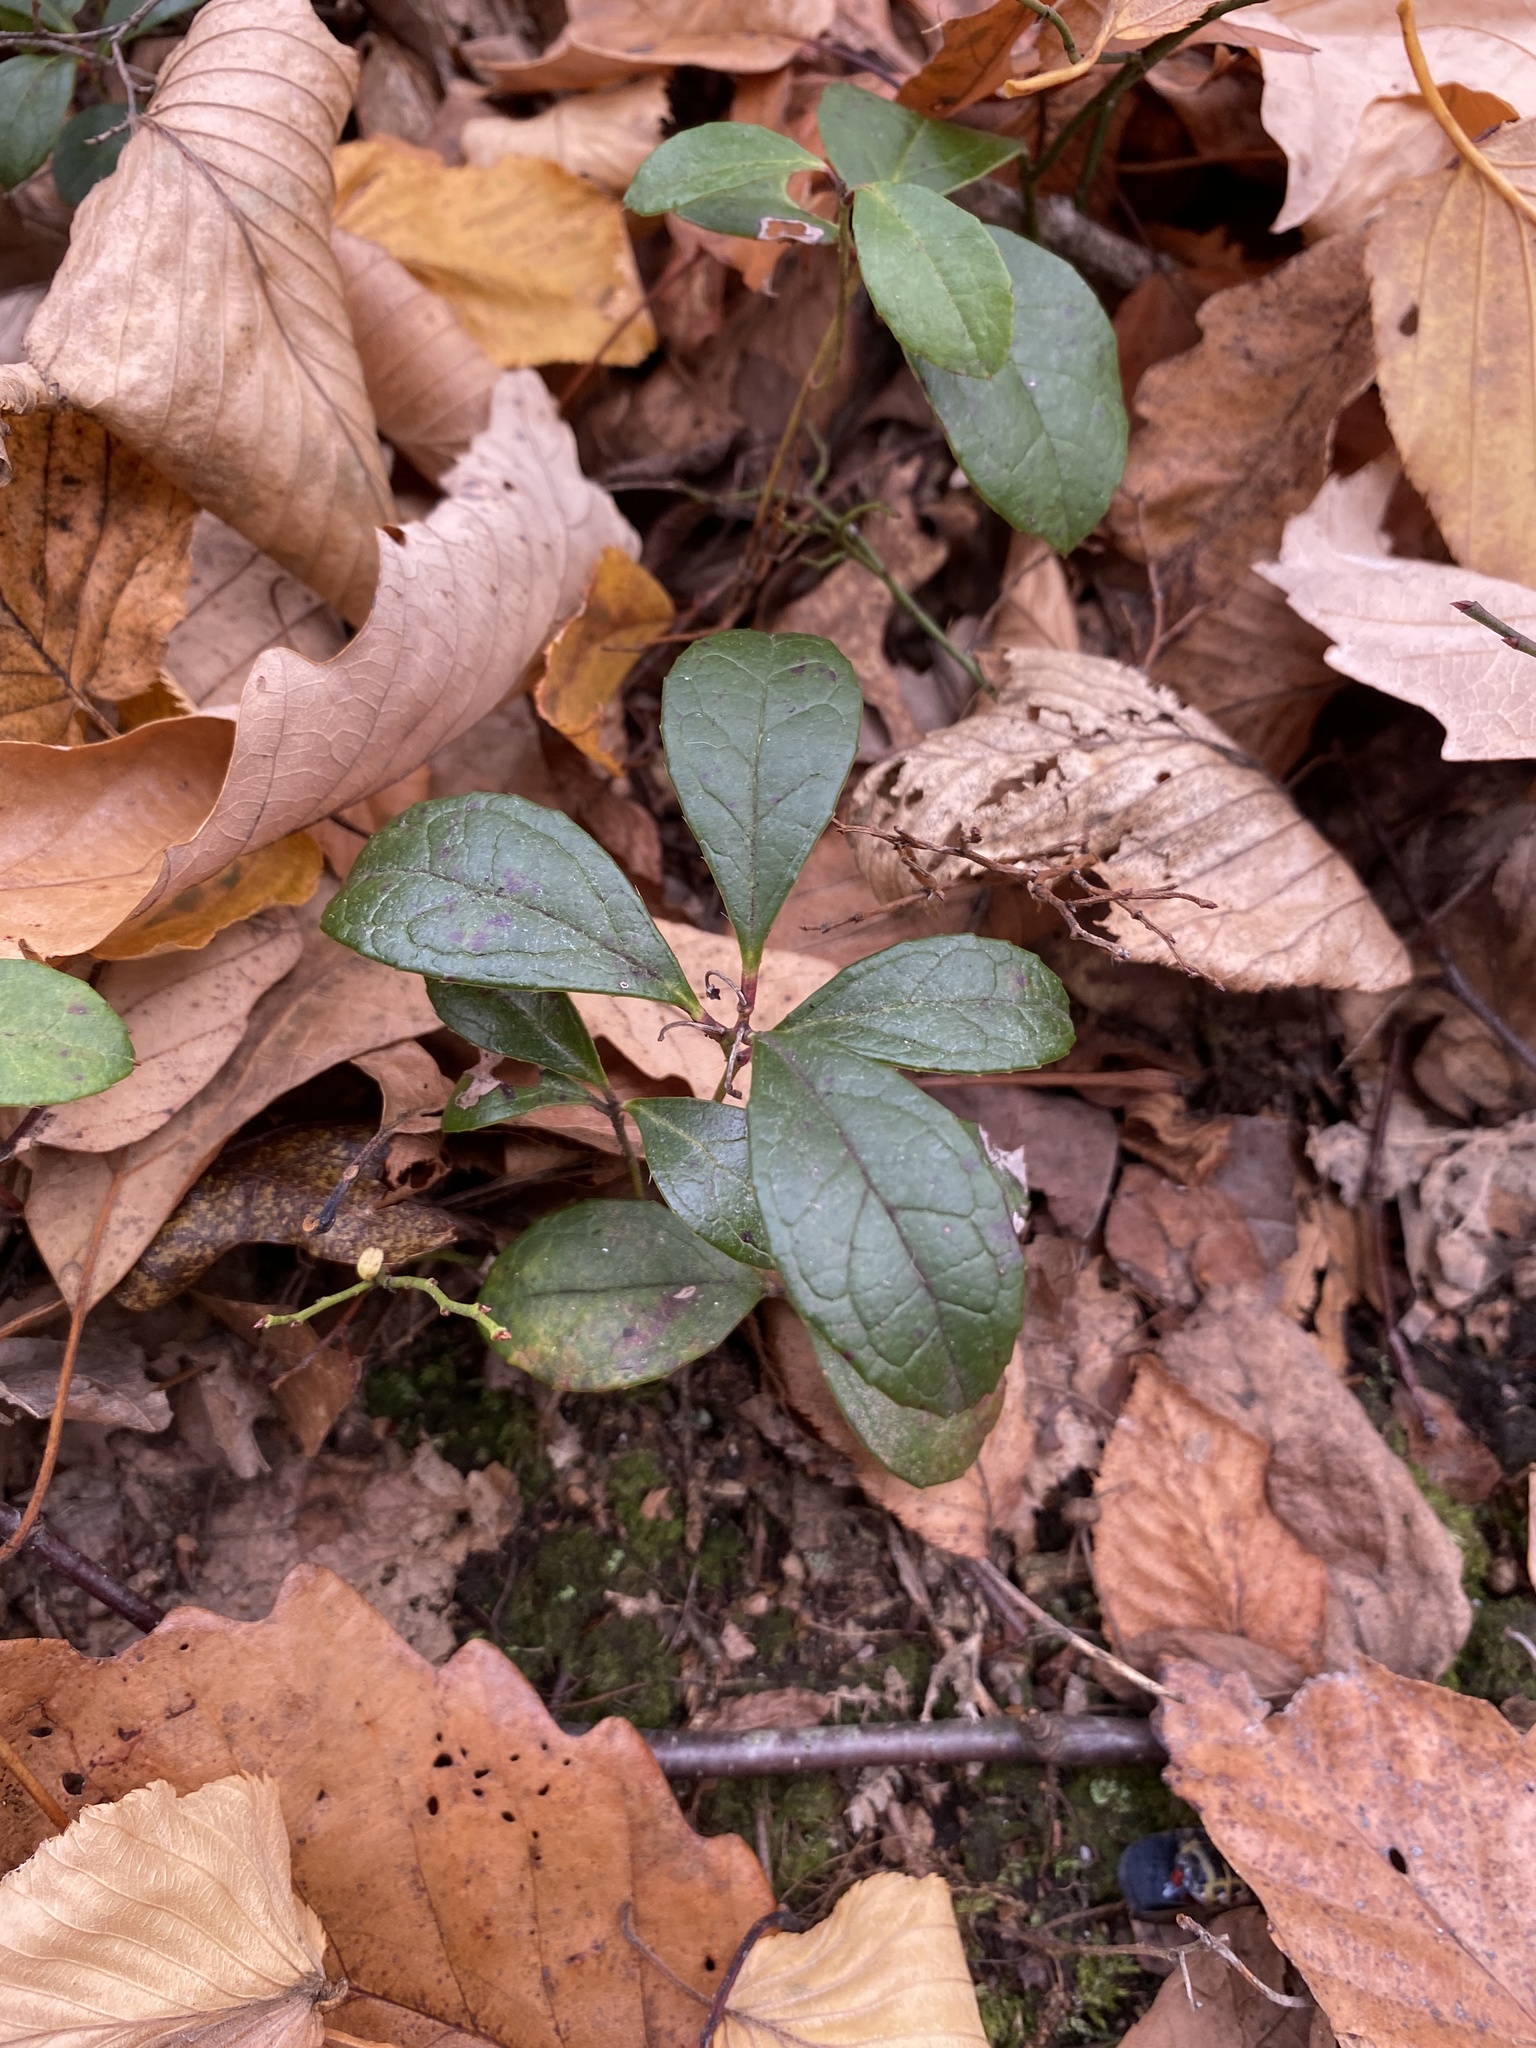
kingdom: Plantae
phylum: Tracheophyta
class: Magnoliopsida
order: Ericales
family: Ericaceae
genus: Gaultheria
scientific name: Gaultheria procumbens
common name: Checkerberry
